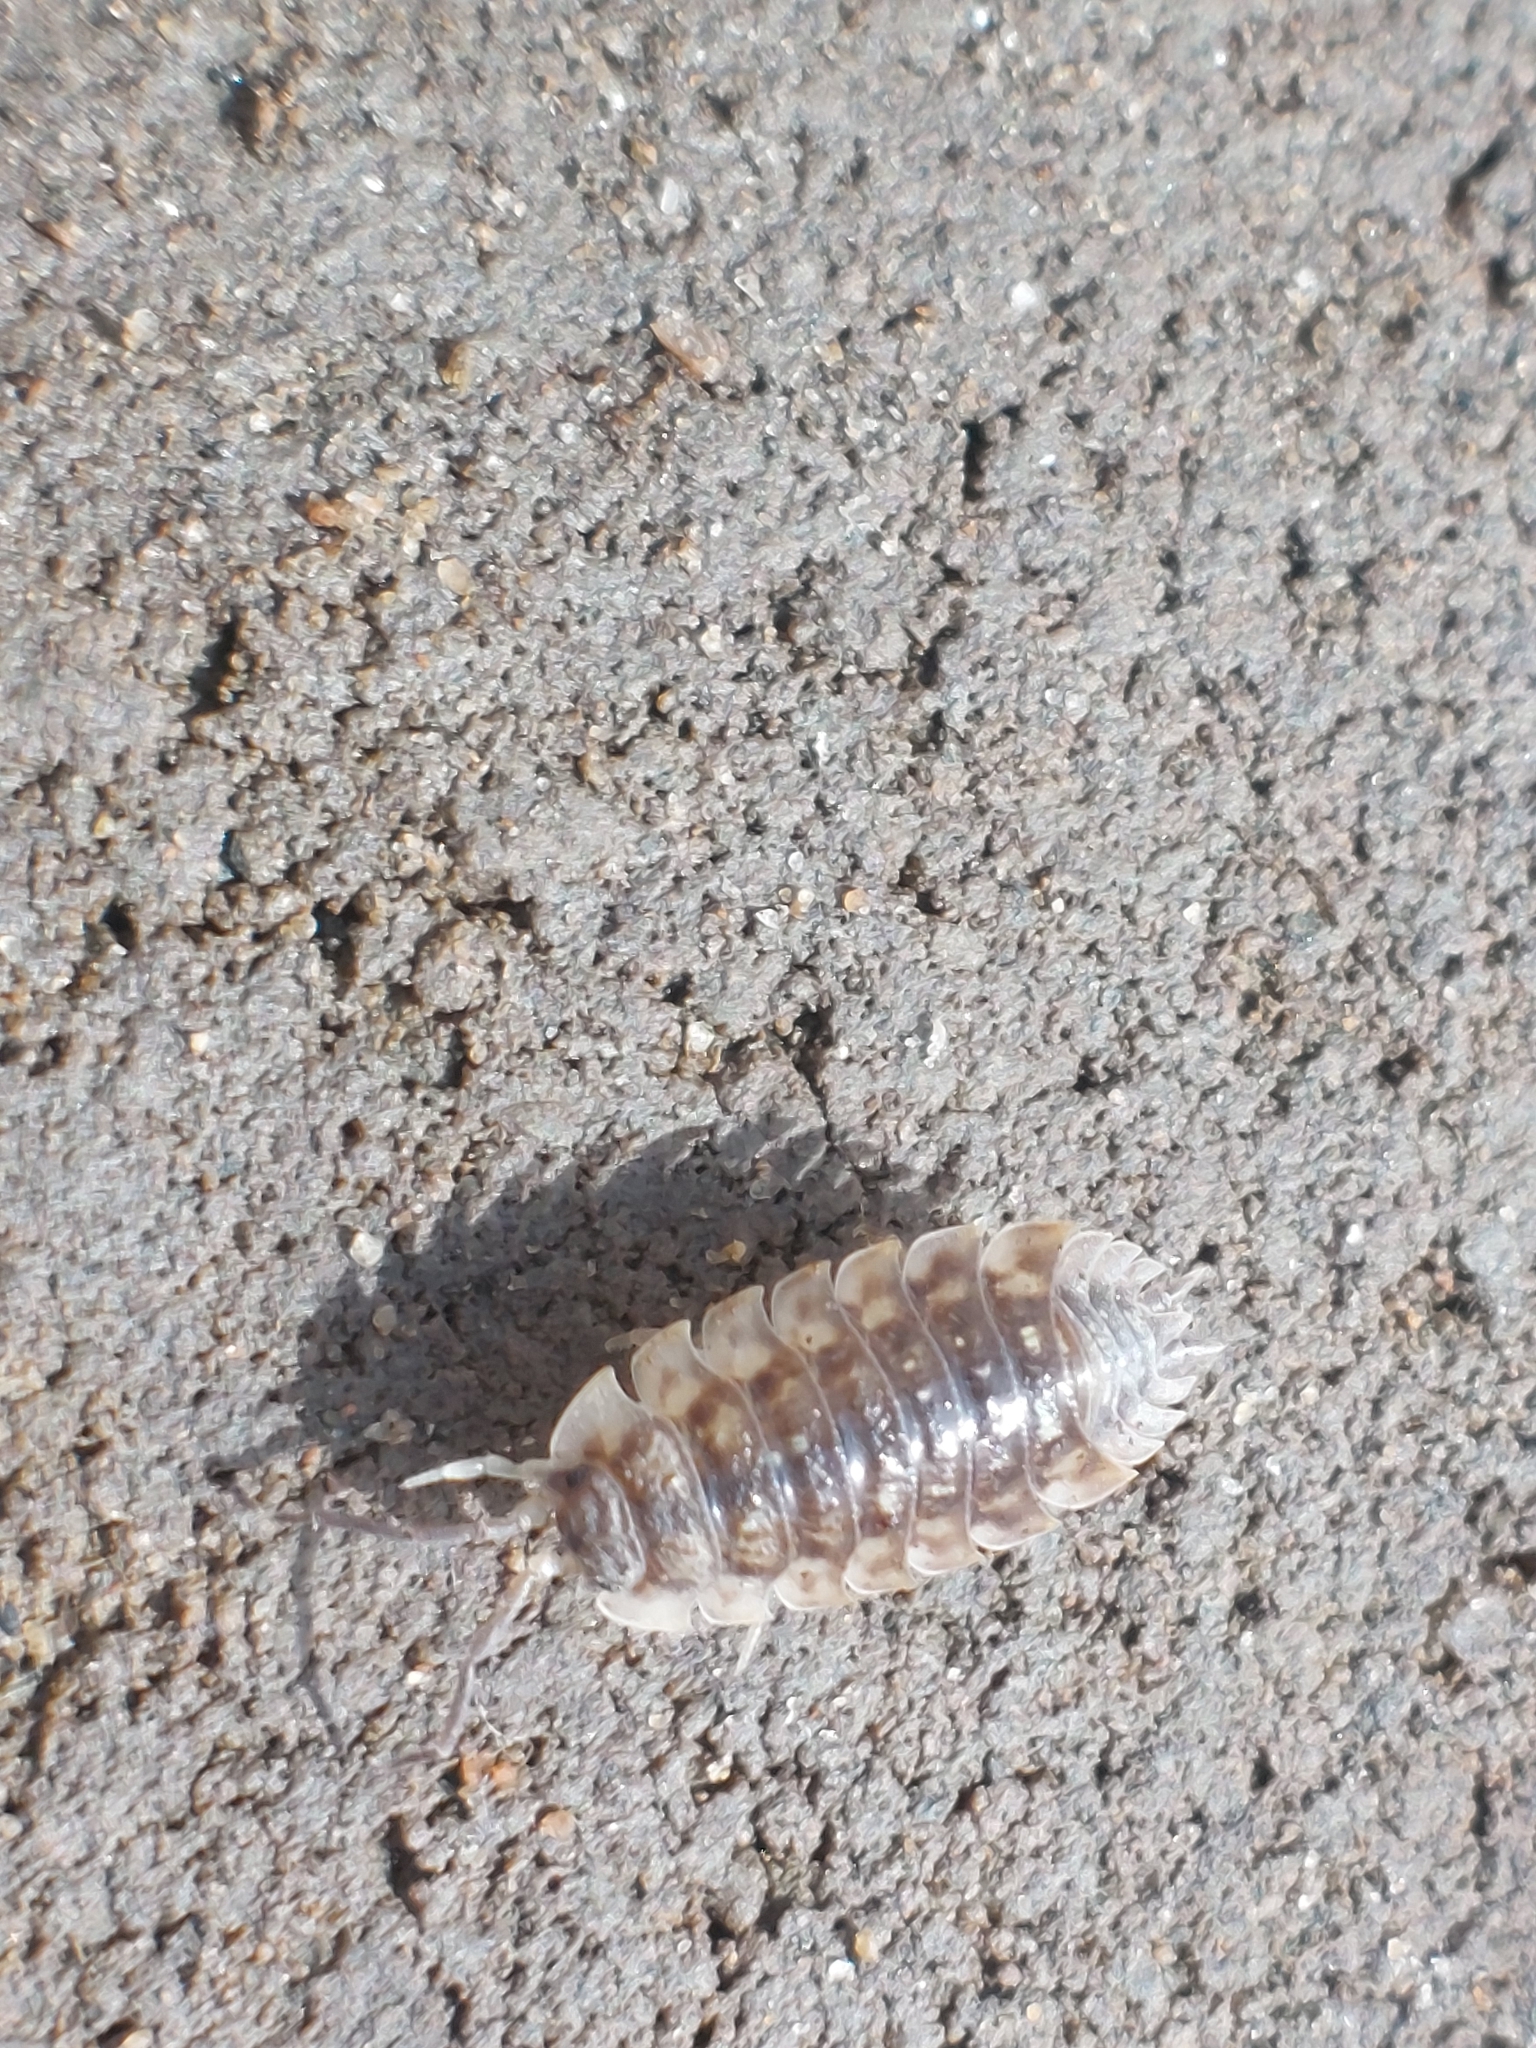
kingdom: Animalia
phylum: Arthropoda
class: Malacostraca
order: Isopoda
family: Oniscidae
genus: Oniscus
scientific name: Oniscus asellus
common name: Common shiny woodlouse
